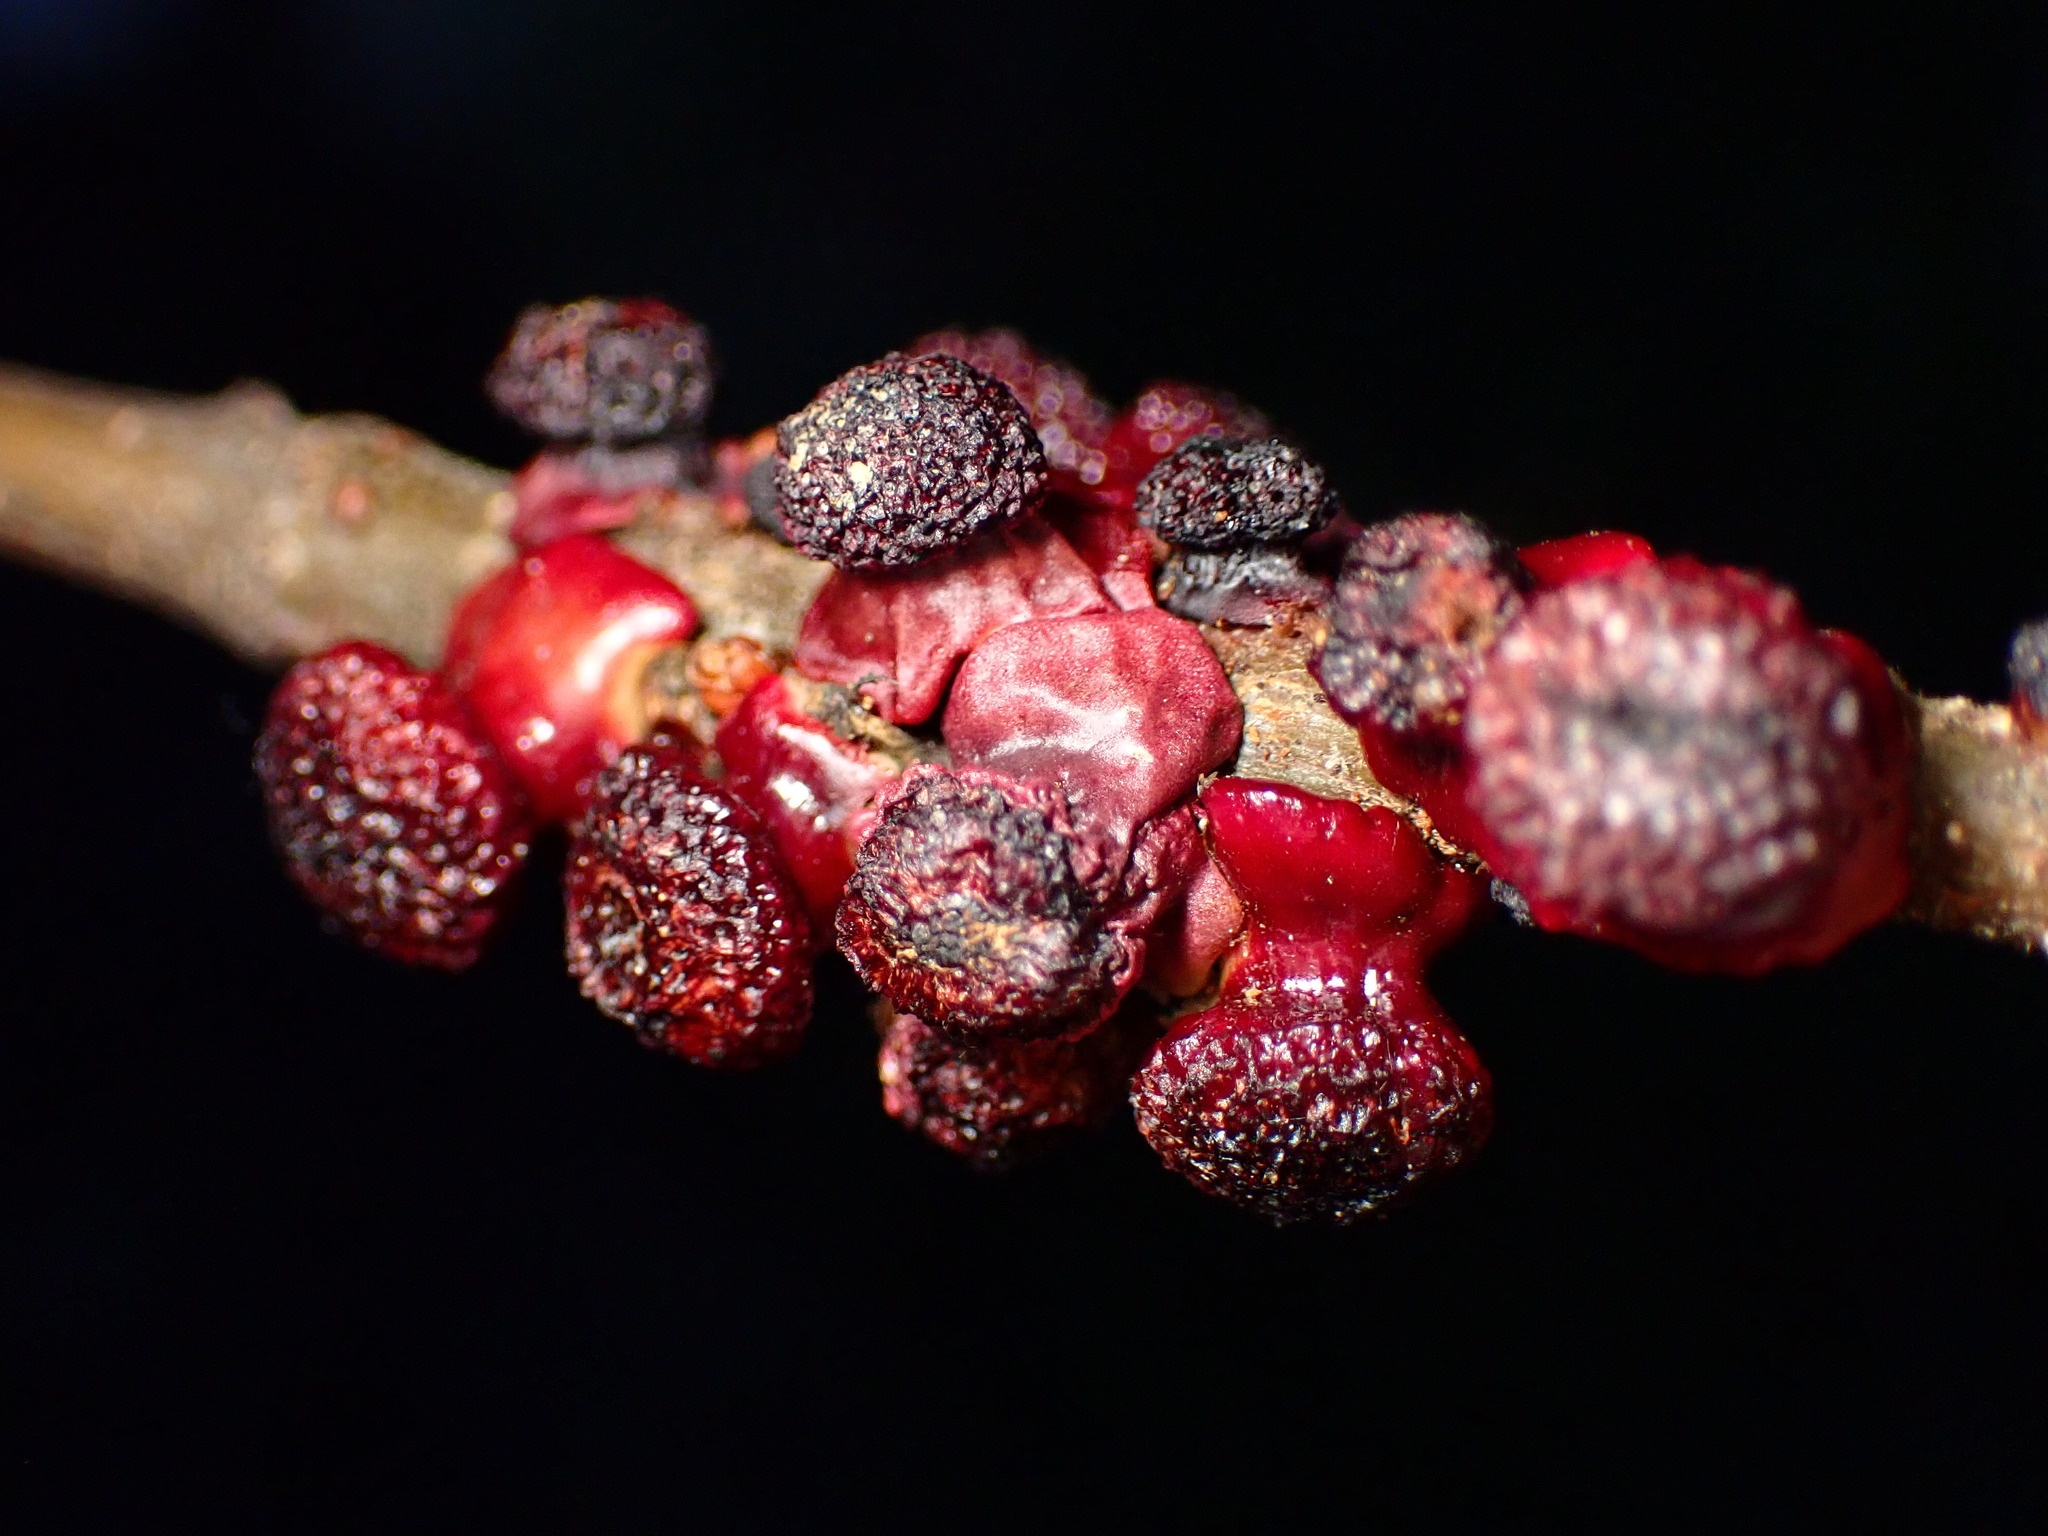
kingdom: Animalia
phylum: Arthropoda
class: Insecta
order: Hymenoptera
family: Cynipidae
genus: Disholcaspis
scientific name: Disholcaspis prehensa
